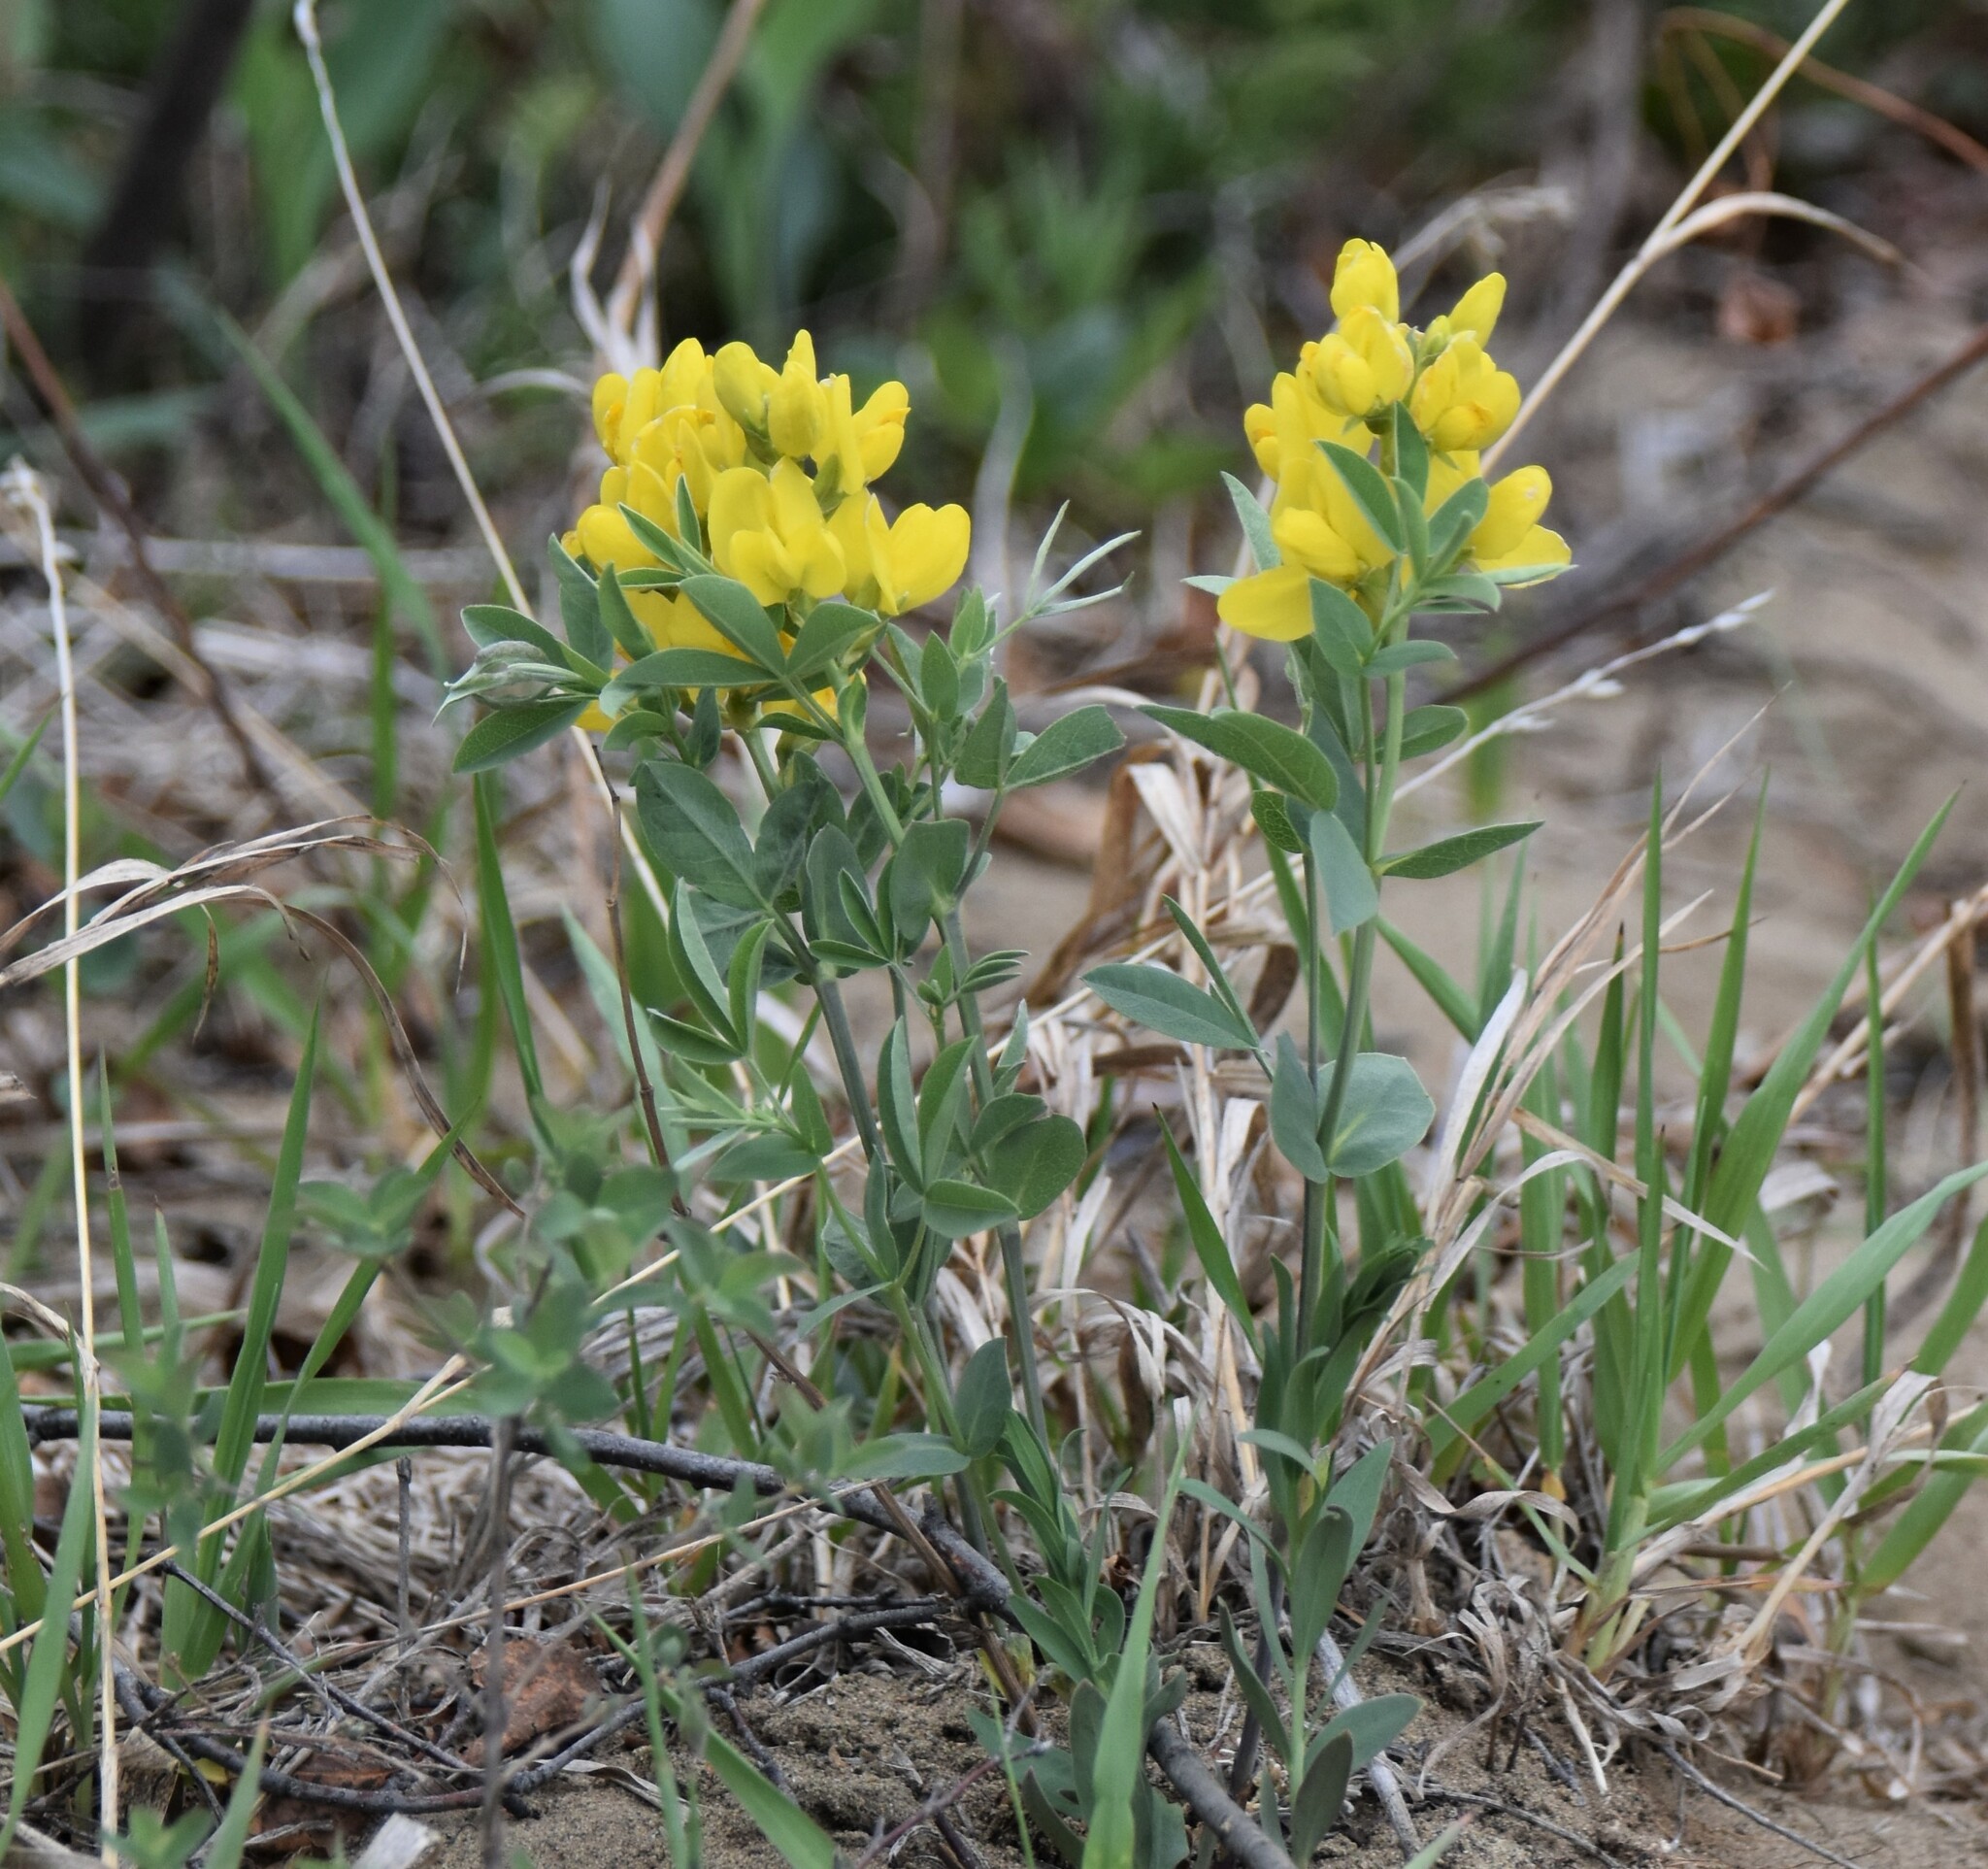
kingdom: Plantae
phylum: Tracheophyta
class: Magnoliopsida
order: Fabales
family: Fabaceae
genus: Thermopsis
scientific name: Thermopsis rhombifolia
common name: Circle-pod-pea
